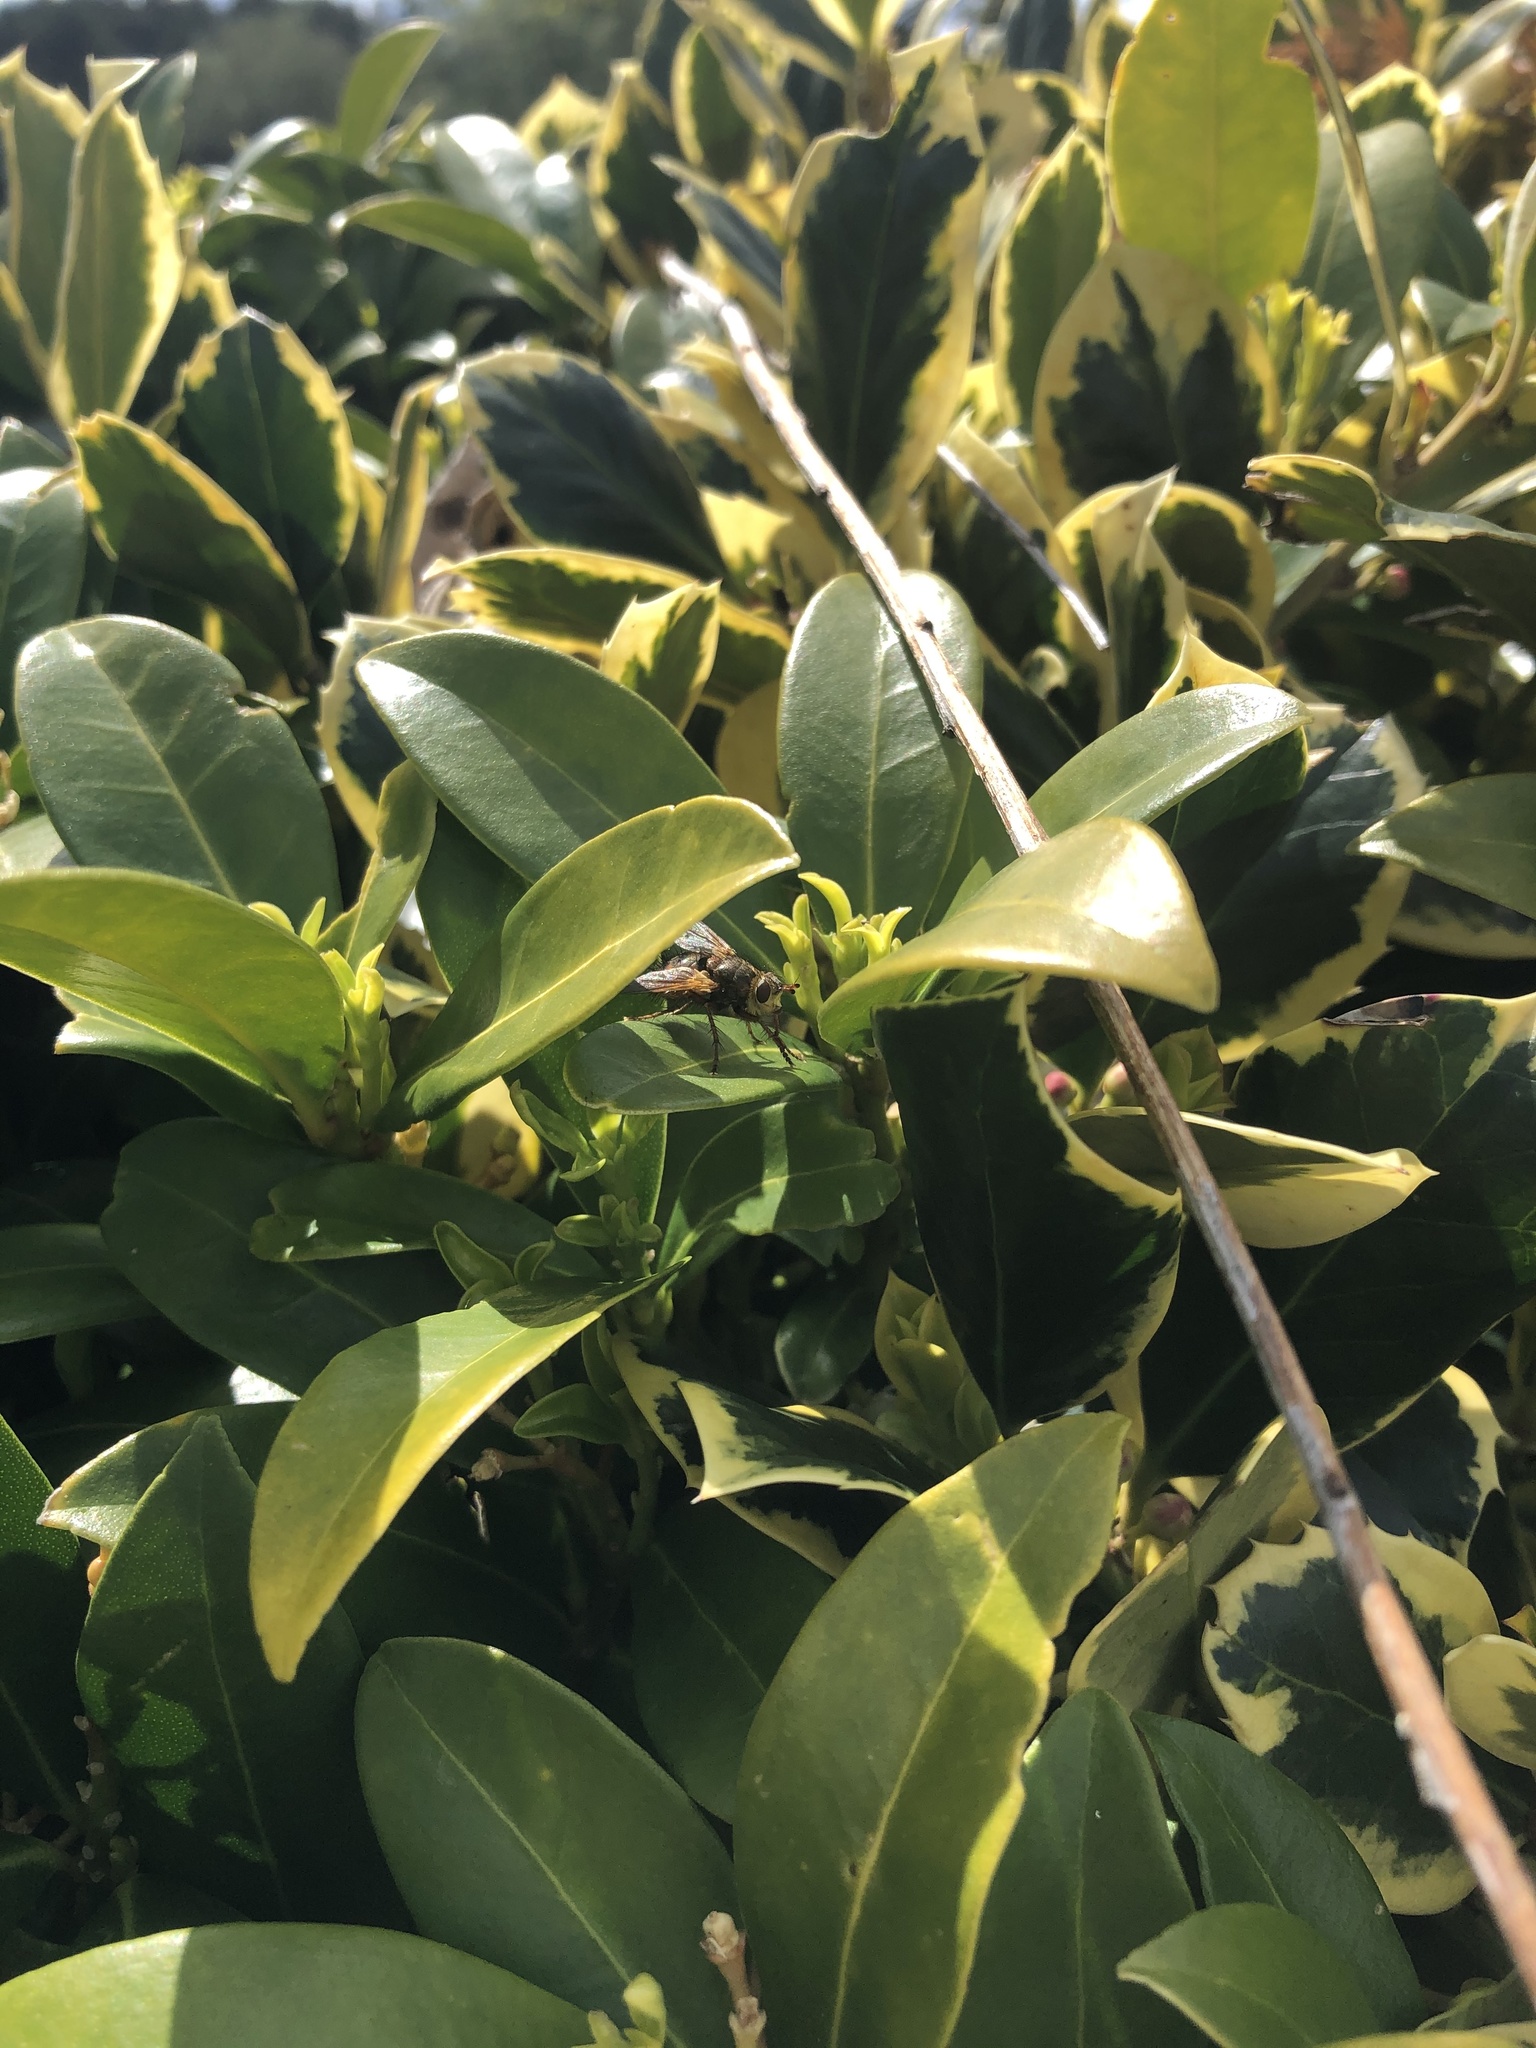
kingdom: Animalia
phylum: Arthropoda
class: Insecta
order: Diptera
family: Tachinidae
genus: Tachina
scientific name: Tachina fera
